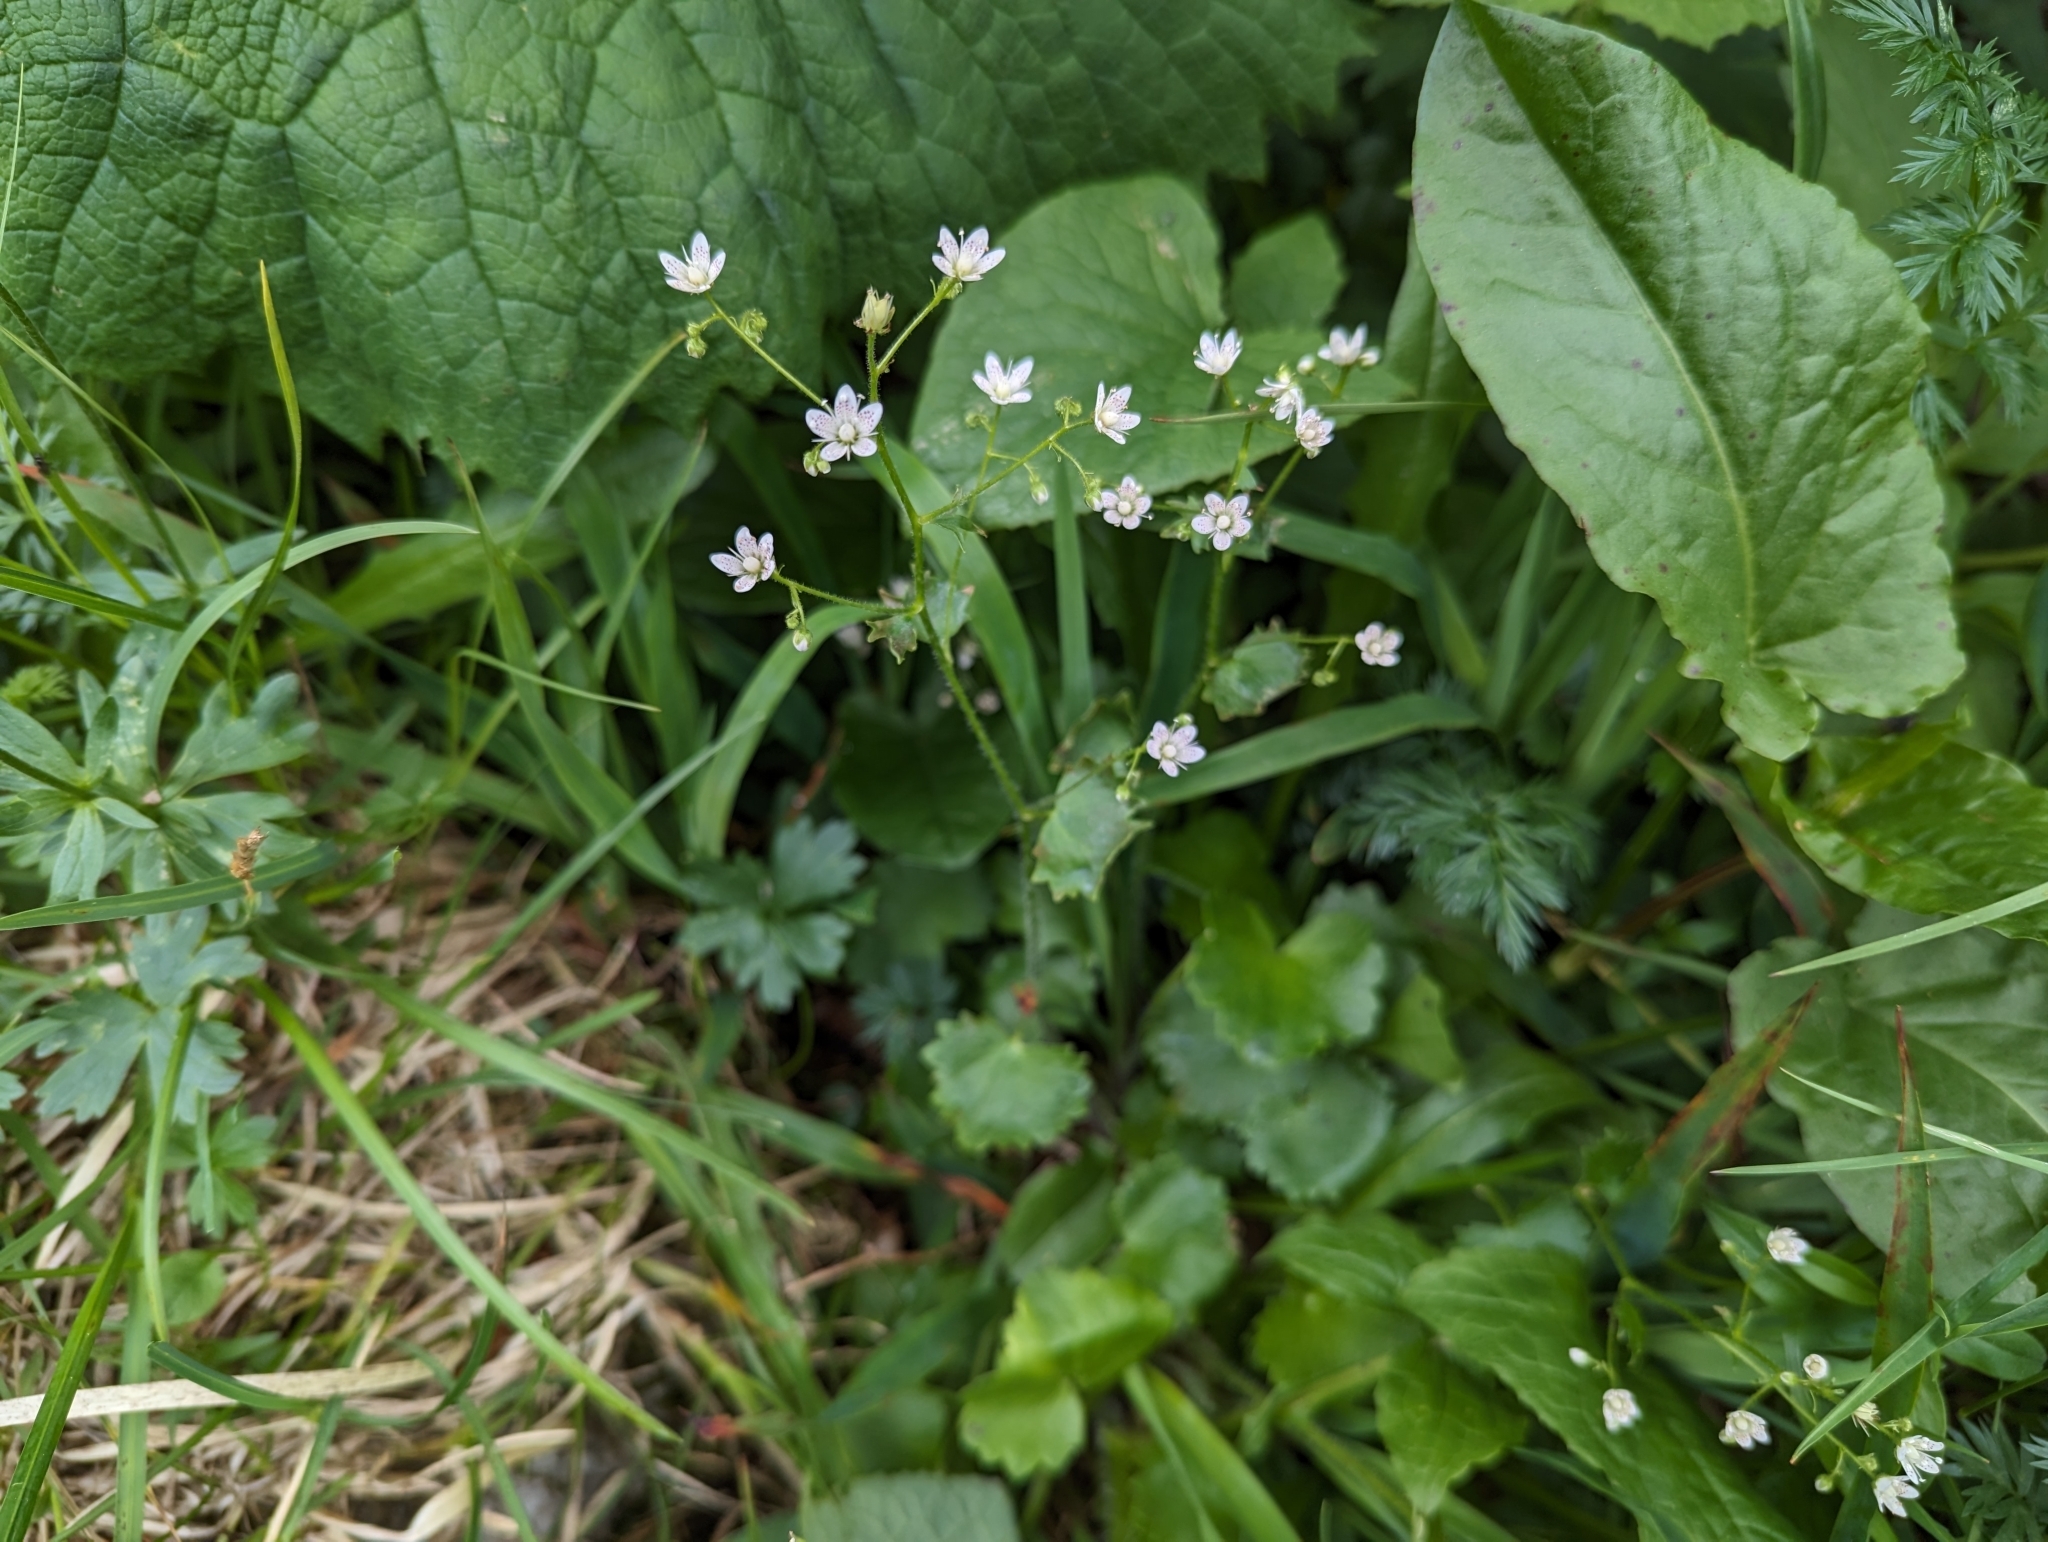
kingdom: Plantae
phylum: Tracheophyta
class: Magnoliopsida
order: Saxifragales
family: Saxifragaceae
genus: Saxifraga
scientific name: Saxifraga rotundifolia
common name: Round-leaved saxifrage
